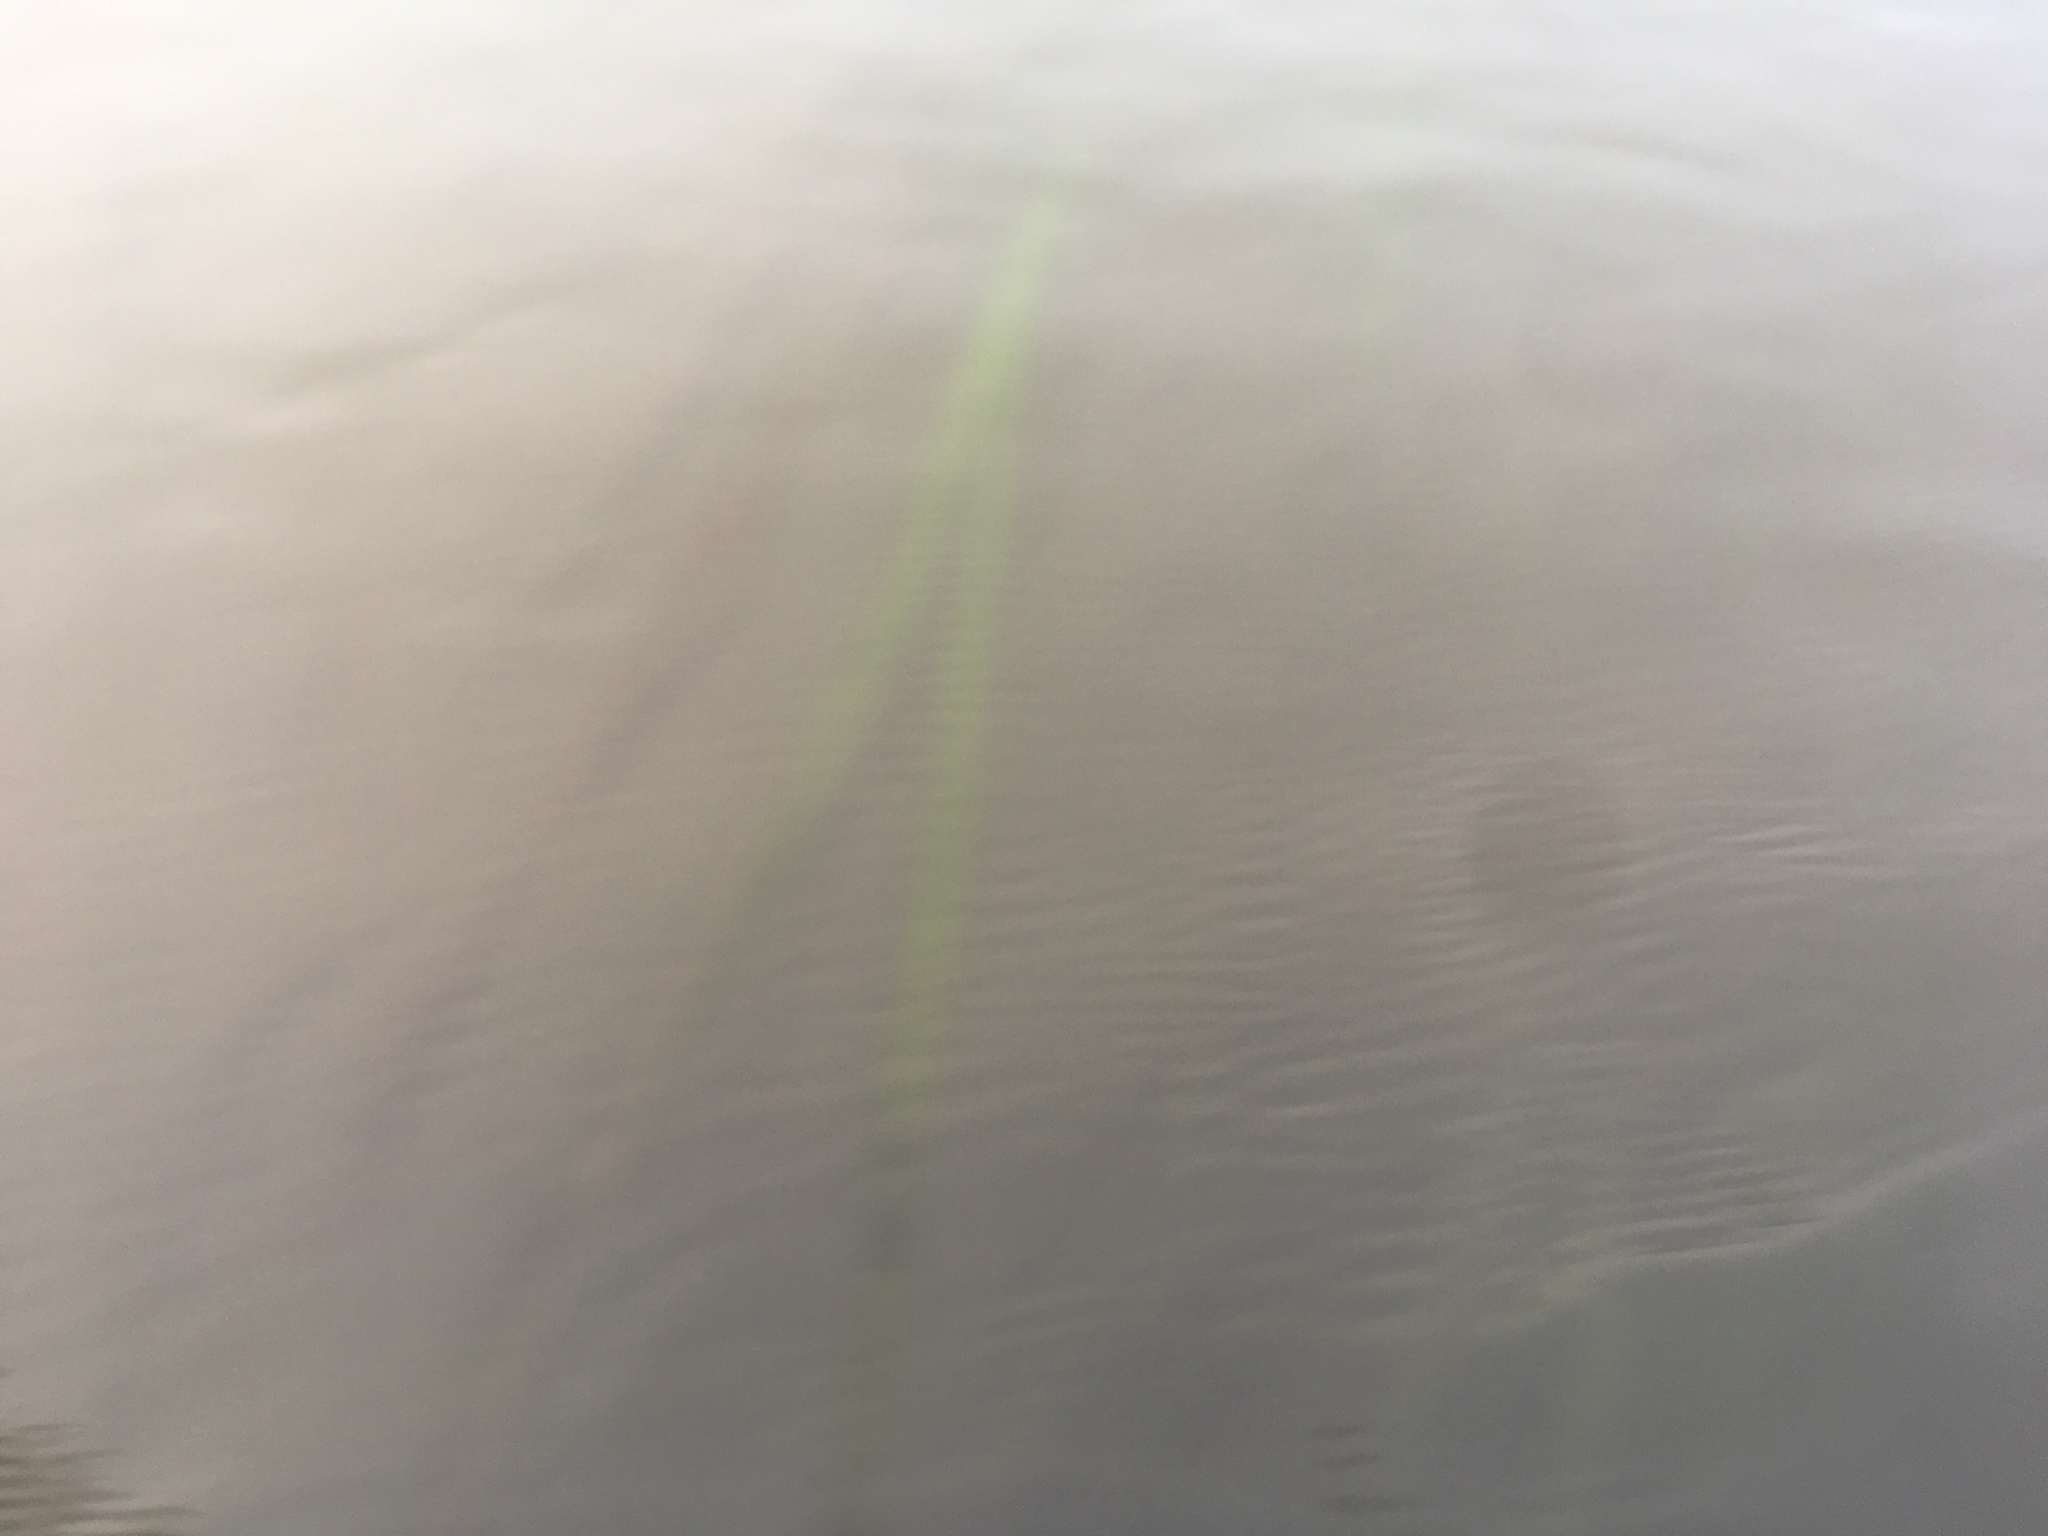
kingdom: Plantae
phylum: Tracheophyta
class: Liliopsida
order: Alismatales
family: Zosteraceae
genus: Zostera
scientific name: Zostera marina
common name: Eelgrass
